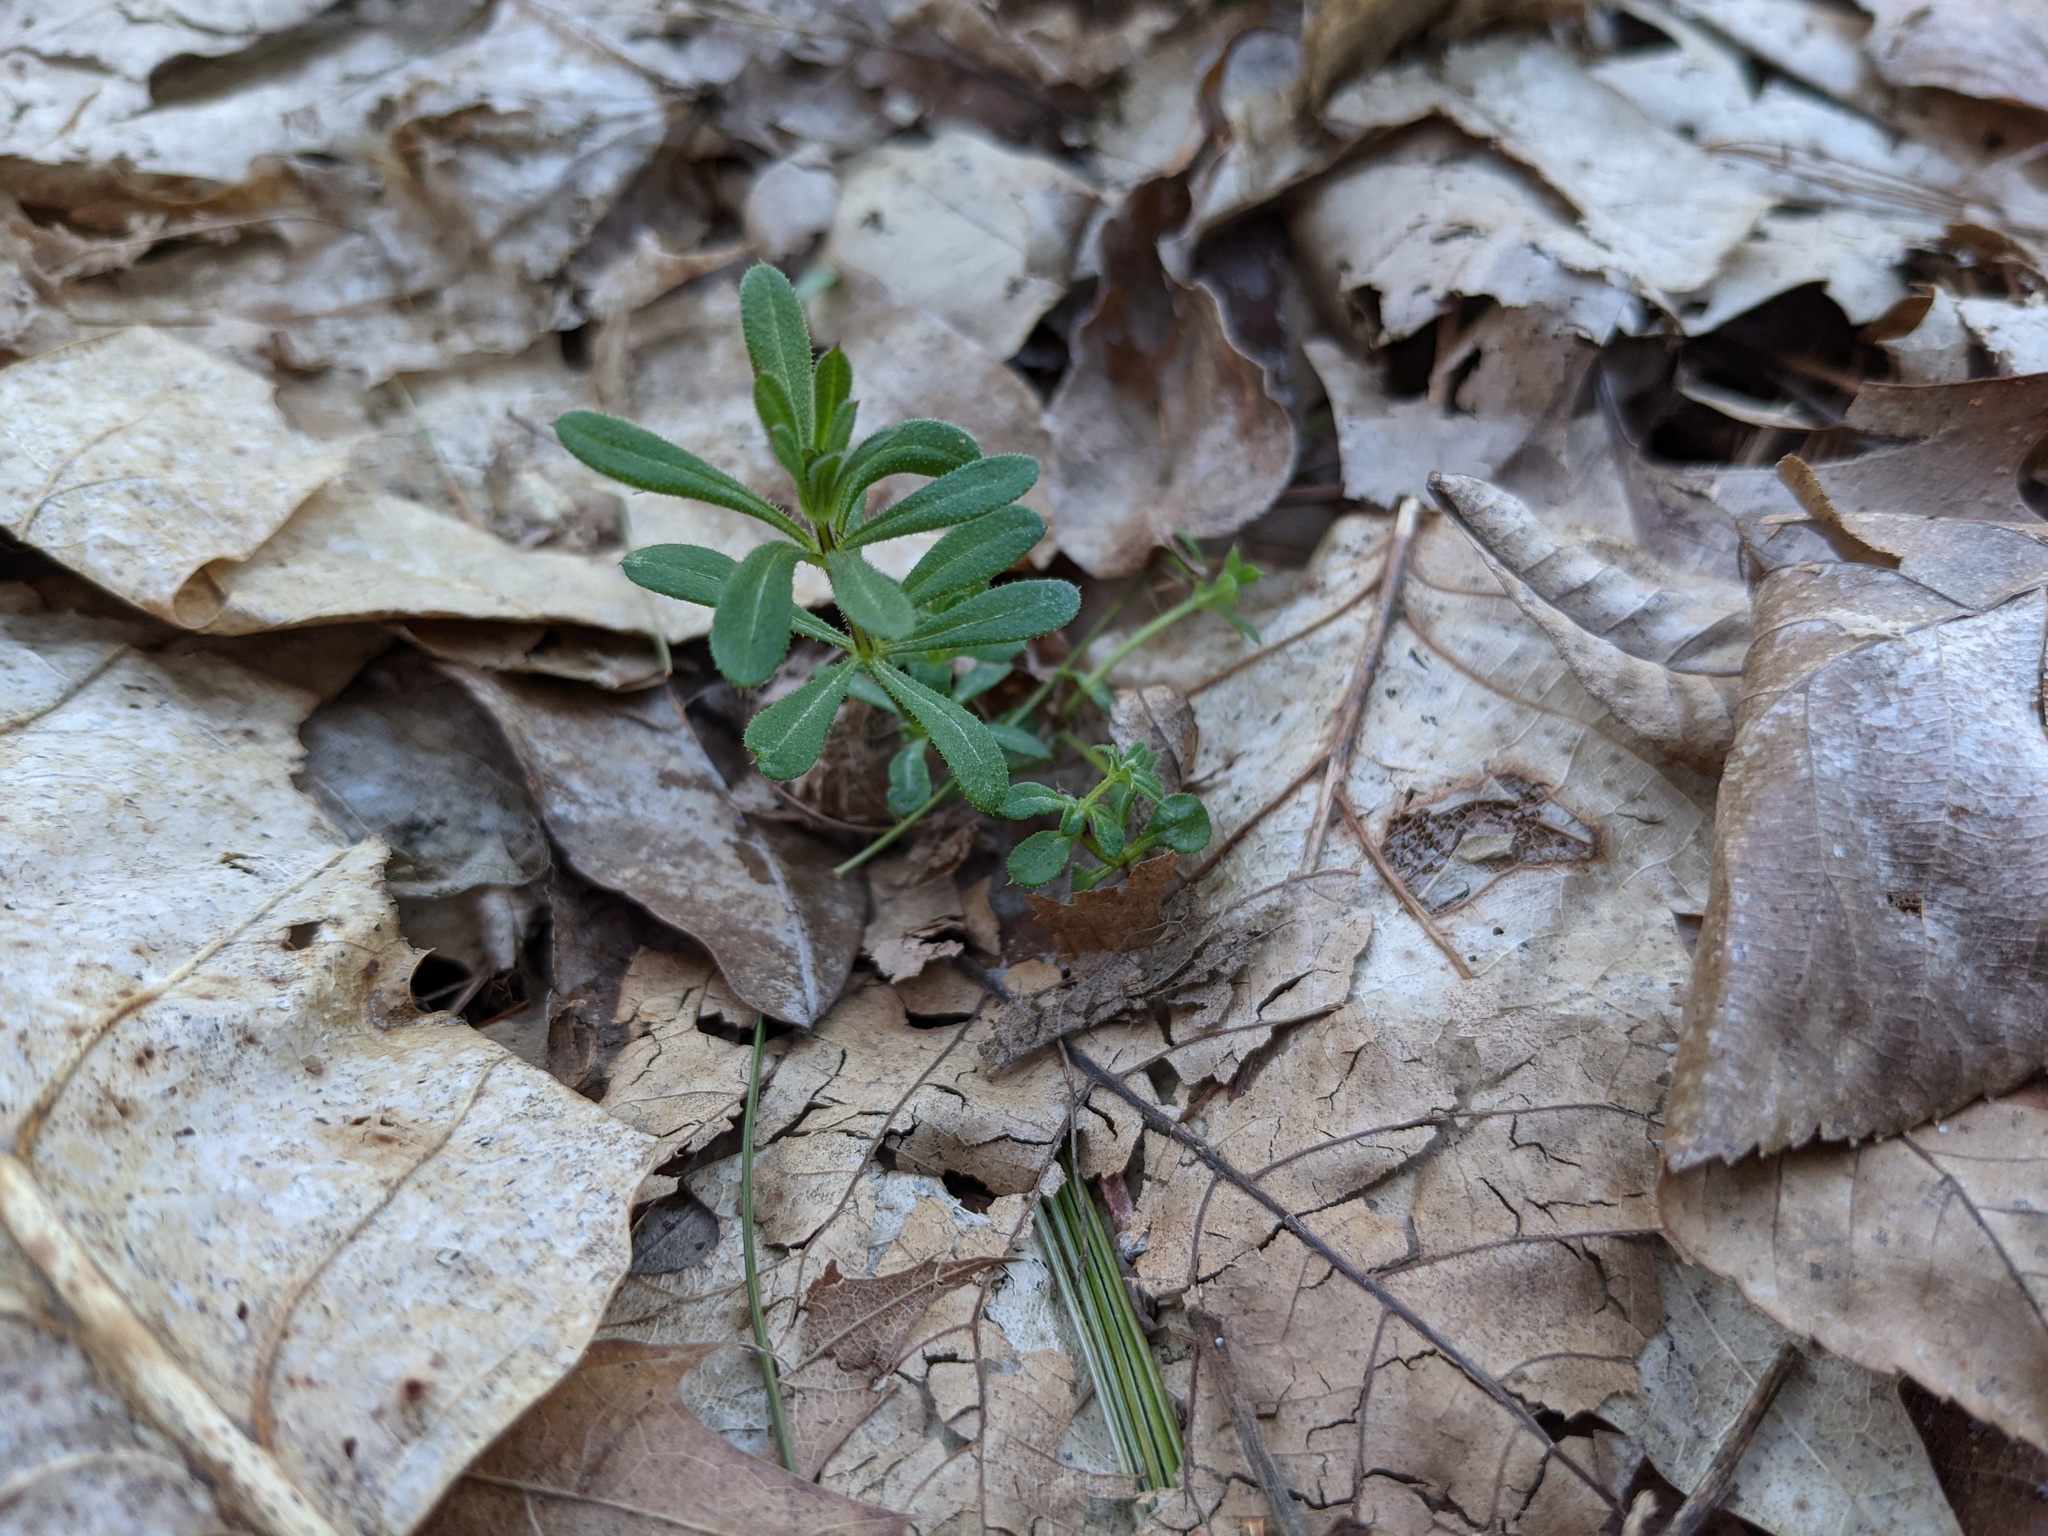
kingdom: Plantae
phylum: Tracheophyta
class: Magnoliopsida
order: Gentianales
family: Rubiaceae
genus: Galium
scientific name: Galium aparine
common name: Cleavers
